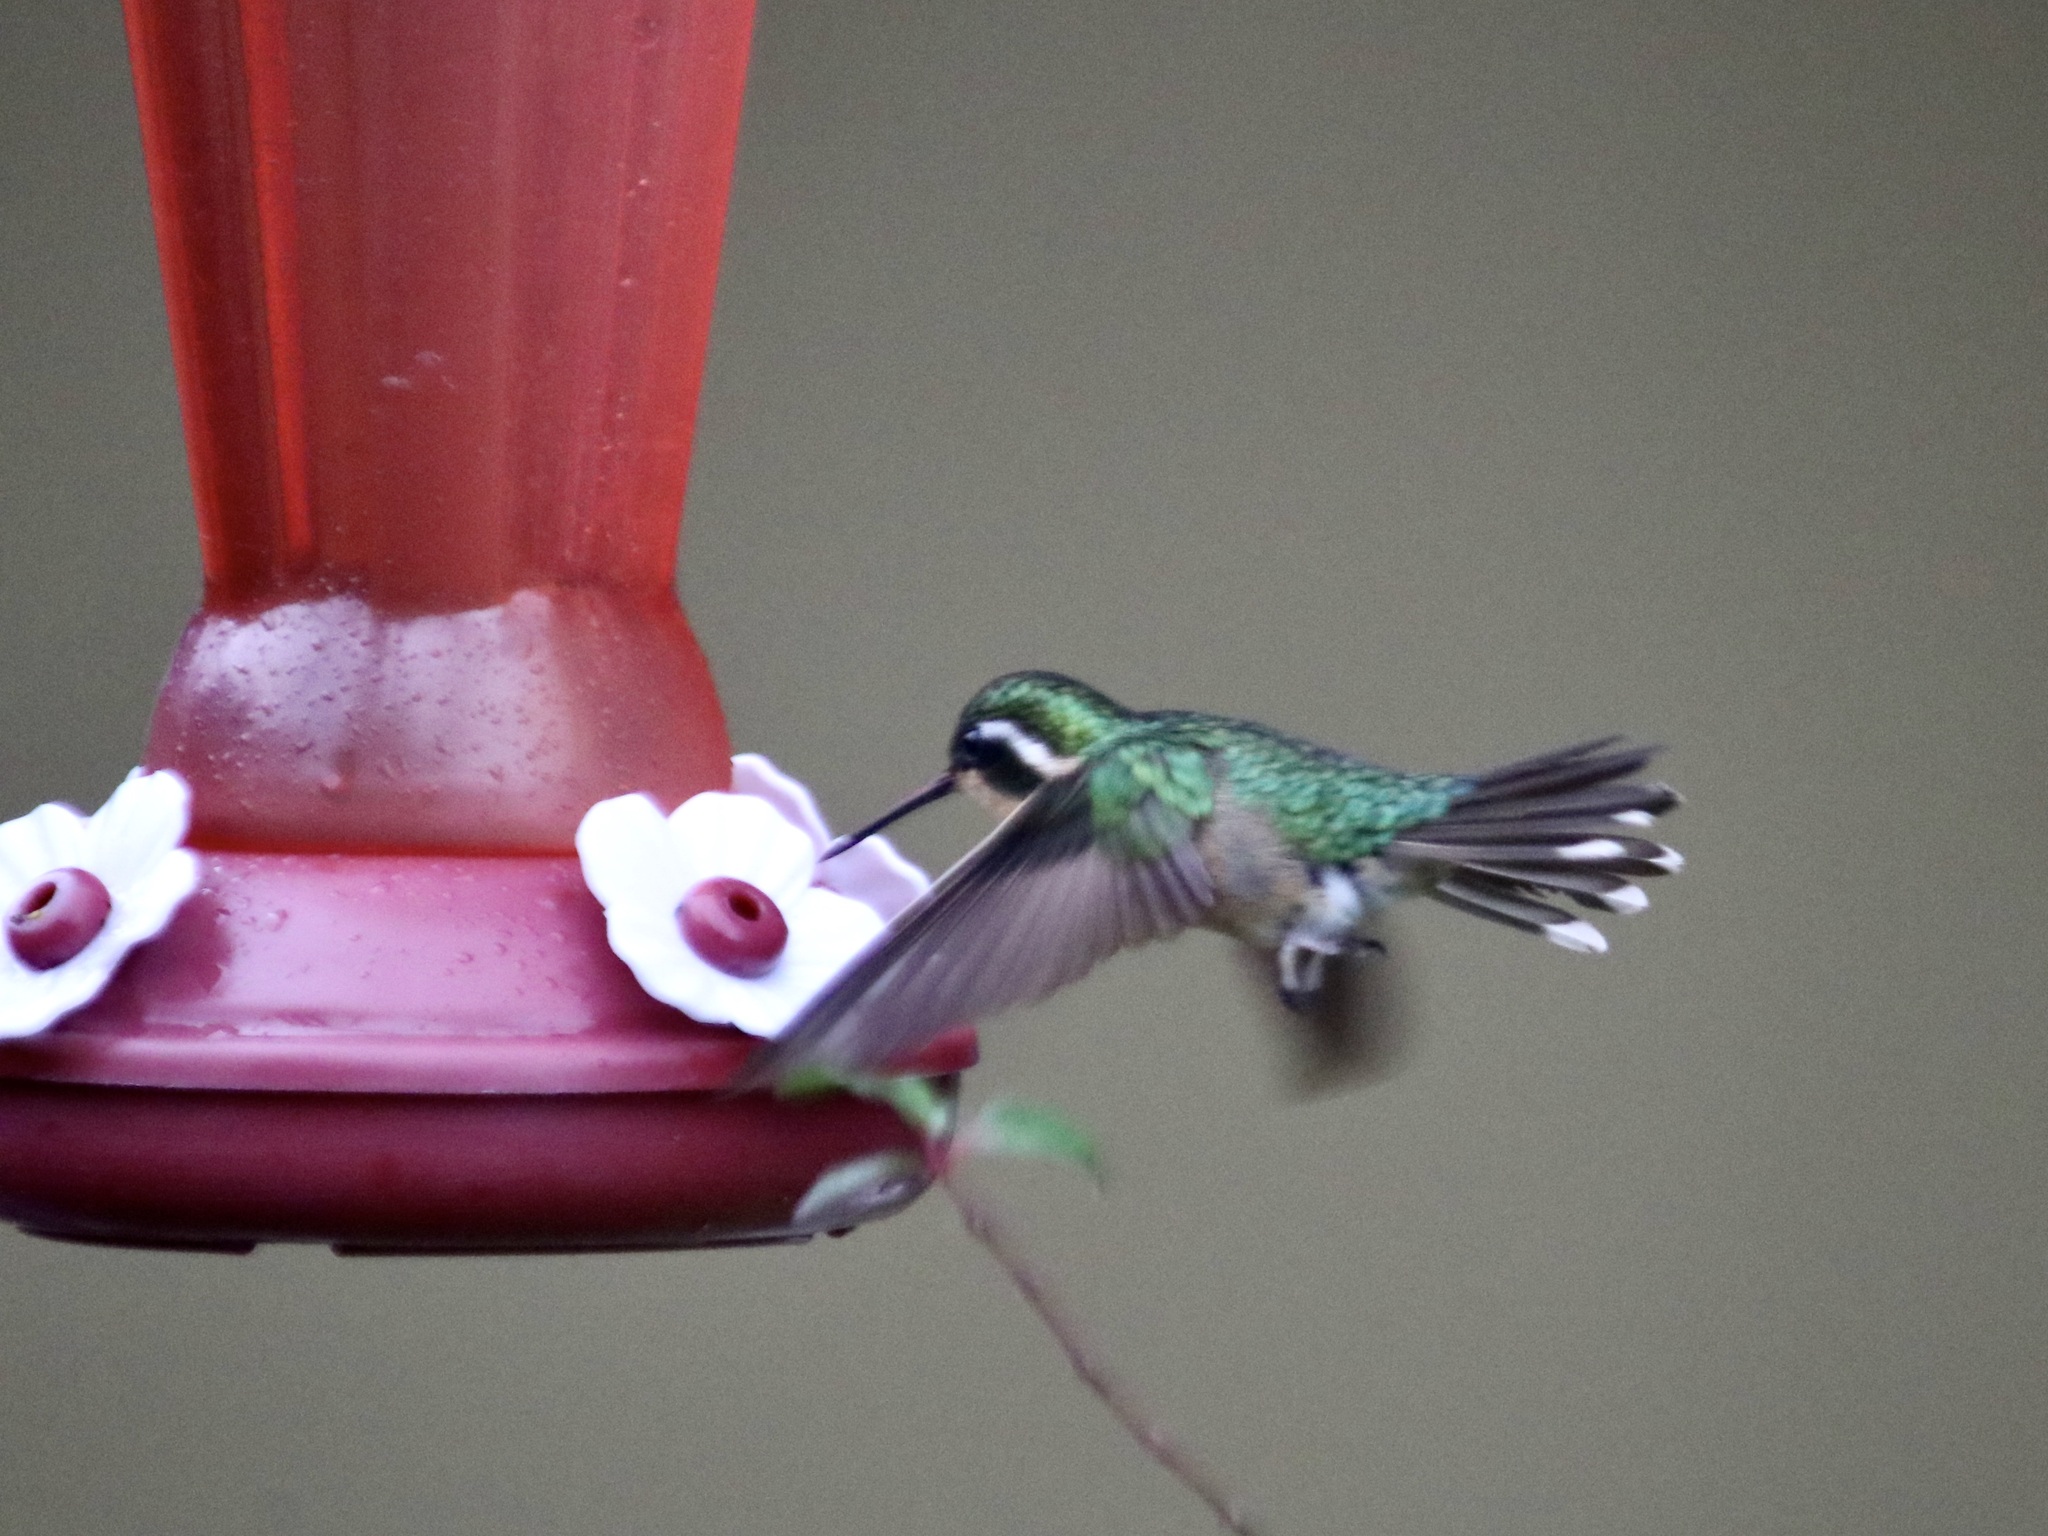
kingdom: Animalia
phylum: Chordata
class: Aves
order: Apodiformes
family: Trochilidae
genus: Lampornis
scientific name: Lampornis castaneoventris
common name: White-throated mountain-gem
